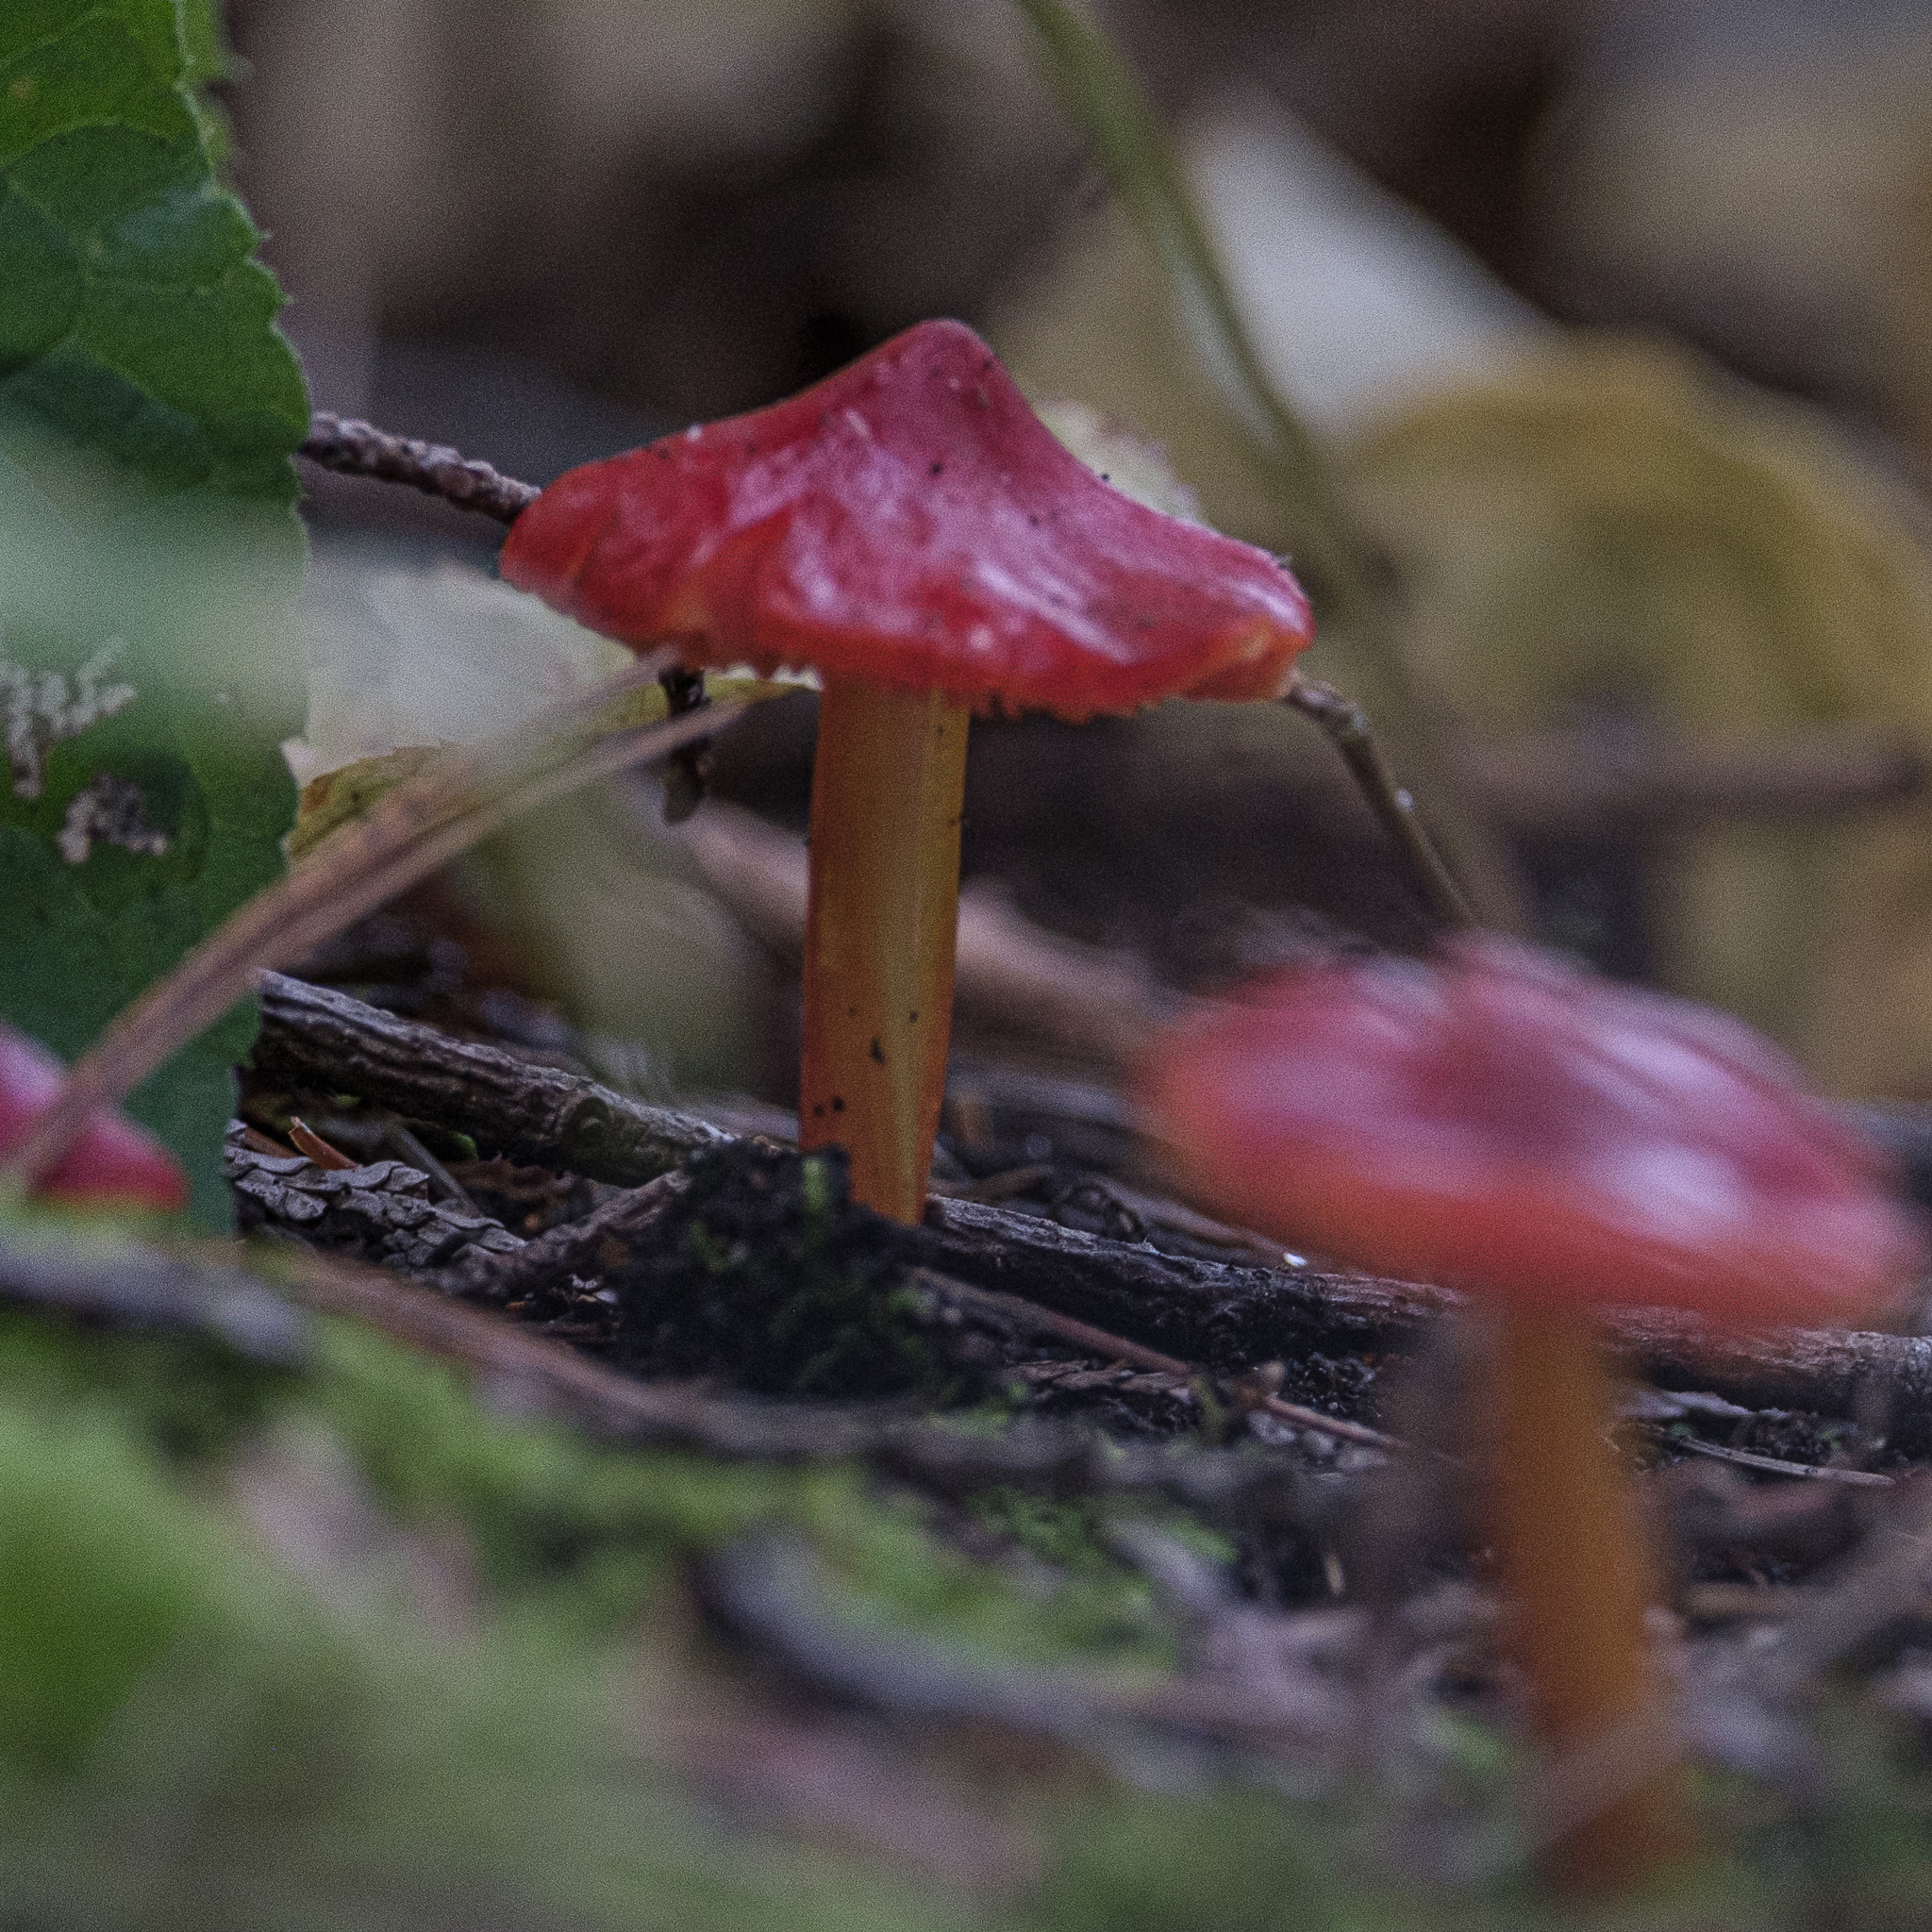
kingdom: Fungi
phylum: Basidiomycota
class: Agaricomycetes
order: Agaricales
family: Hygrophoraceae
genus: Hygrocybe
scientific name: Hygrocybe cuspidata
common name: Candy apple waxy cap
